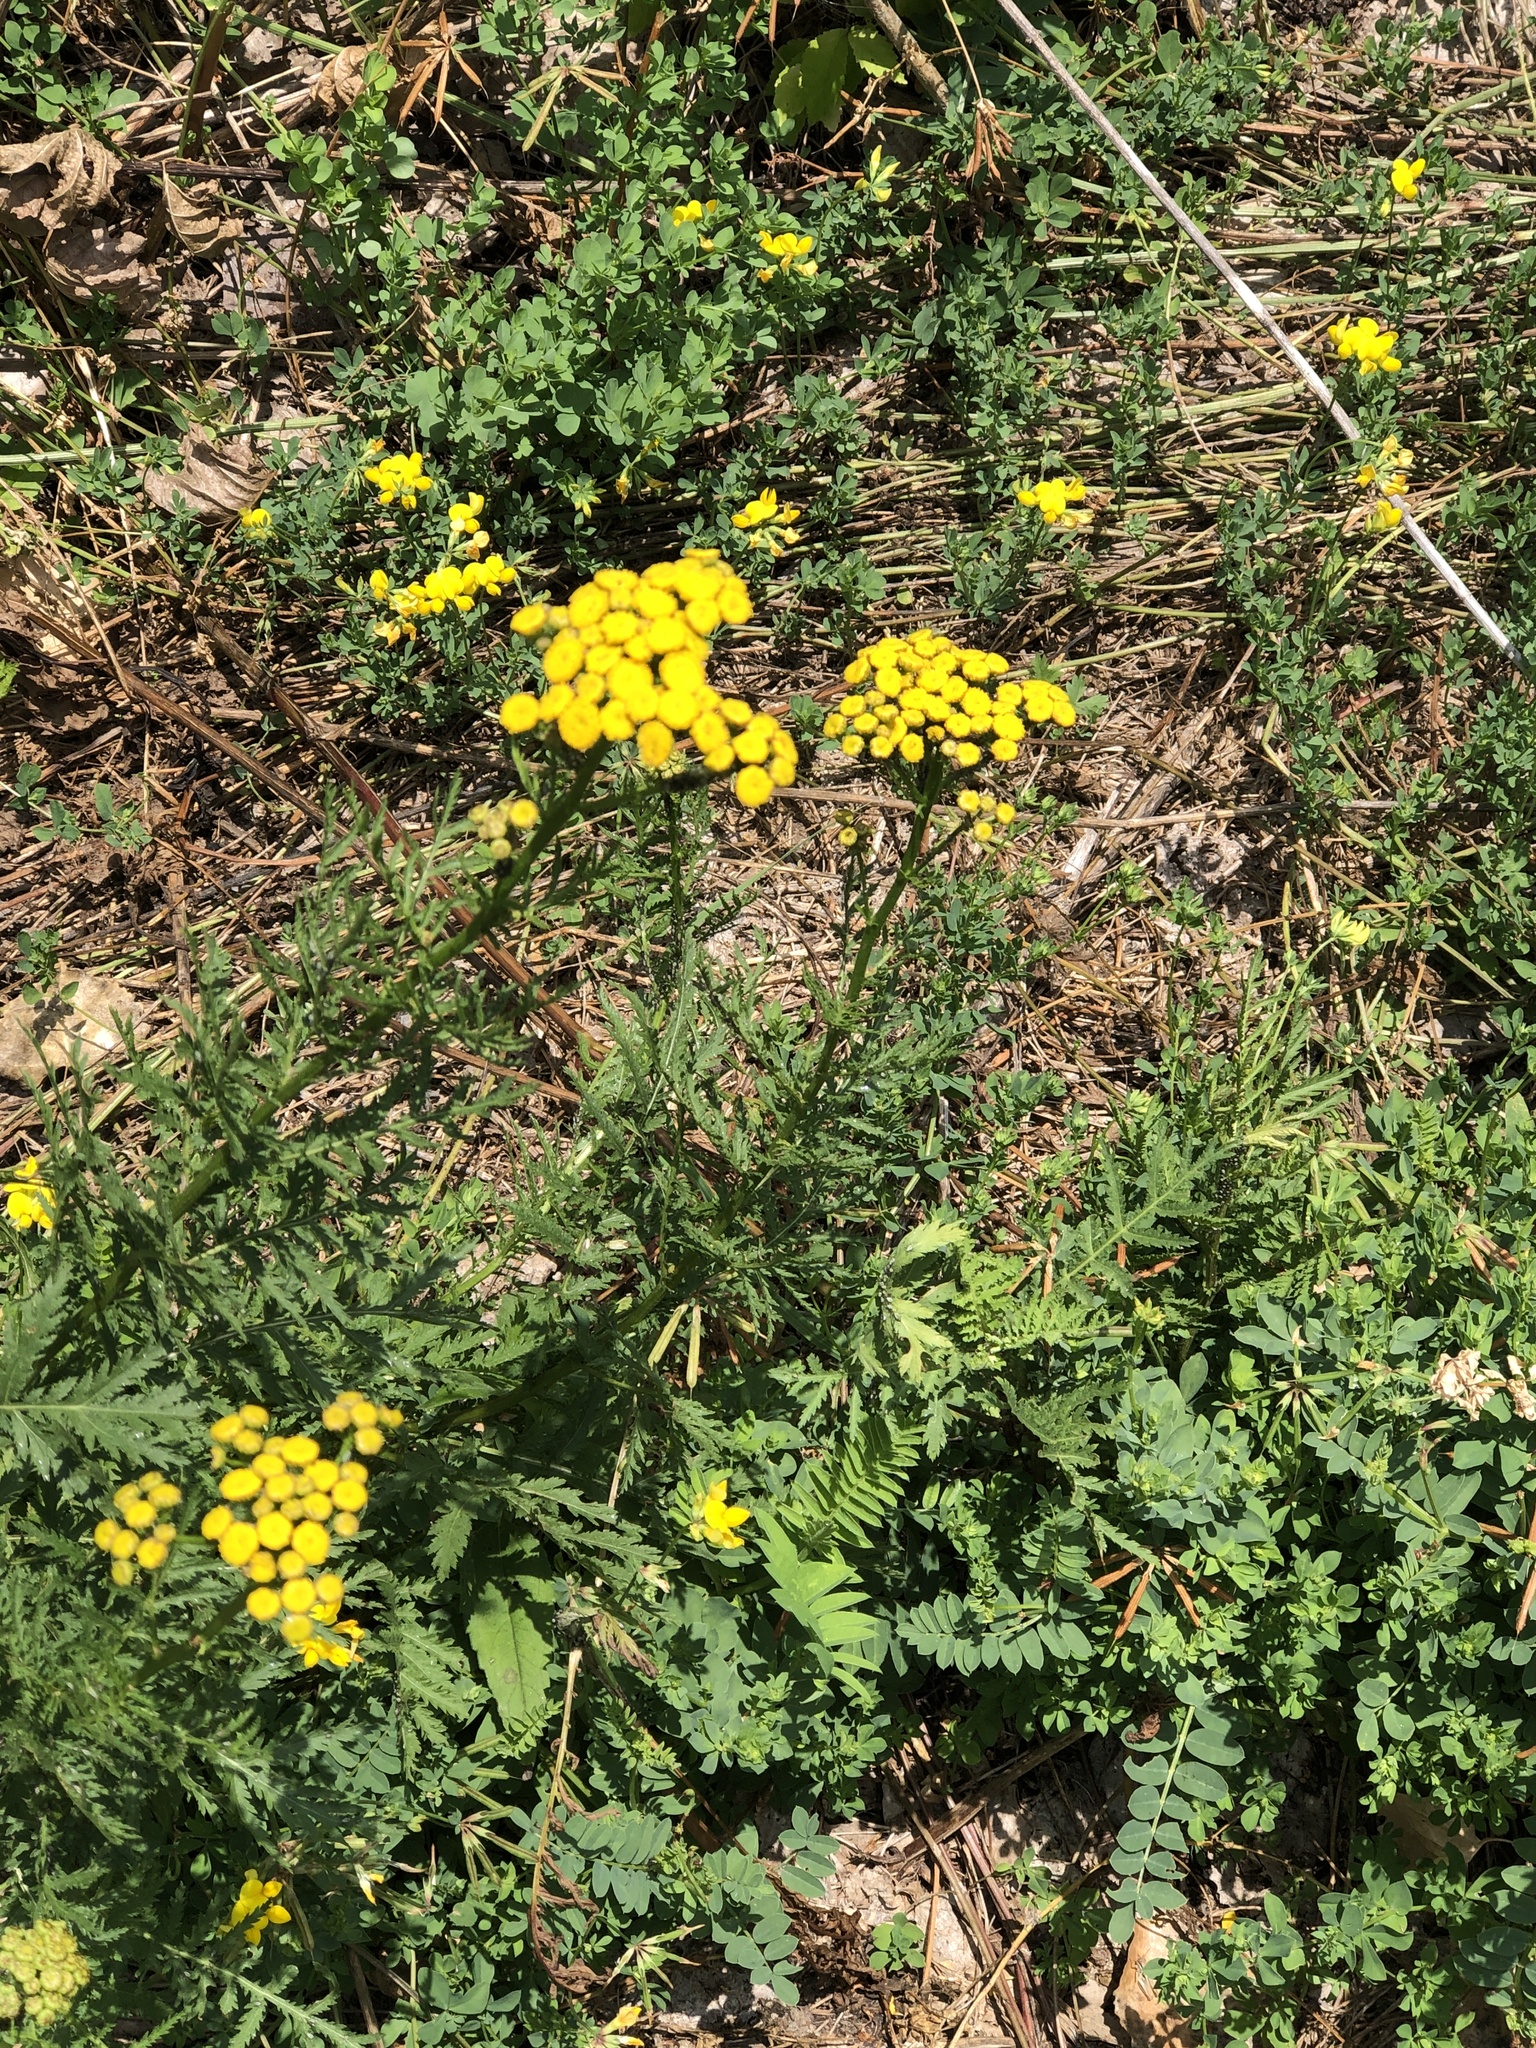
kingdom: Plantae
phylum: Tracheophyta
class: Magnoliopsida
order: Asterales
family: Asteraceae
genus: Tanacetum
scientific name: Tanacetum vulgare
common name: Common tansy
